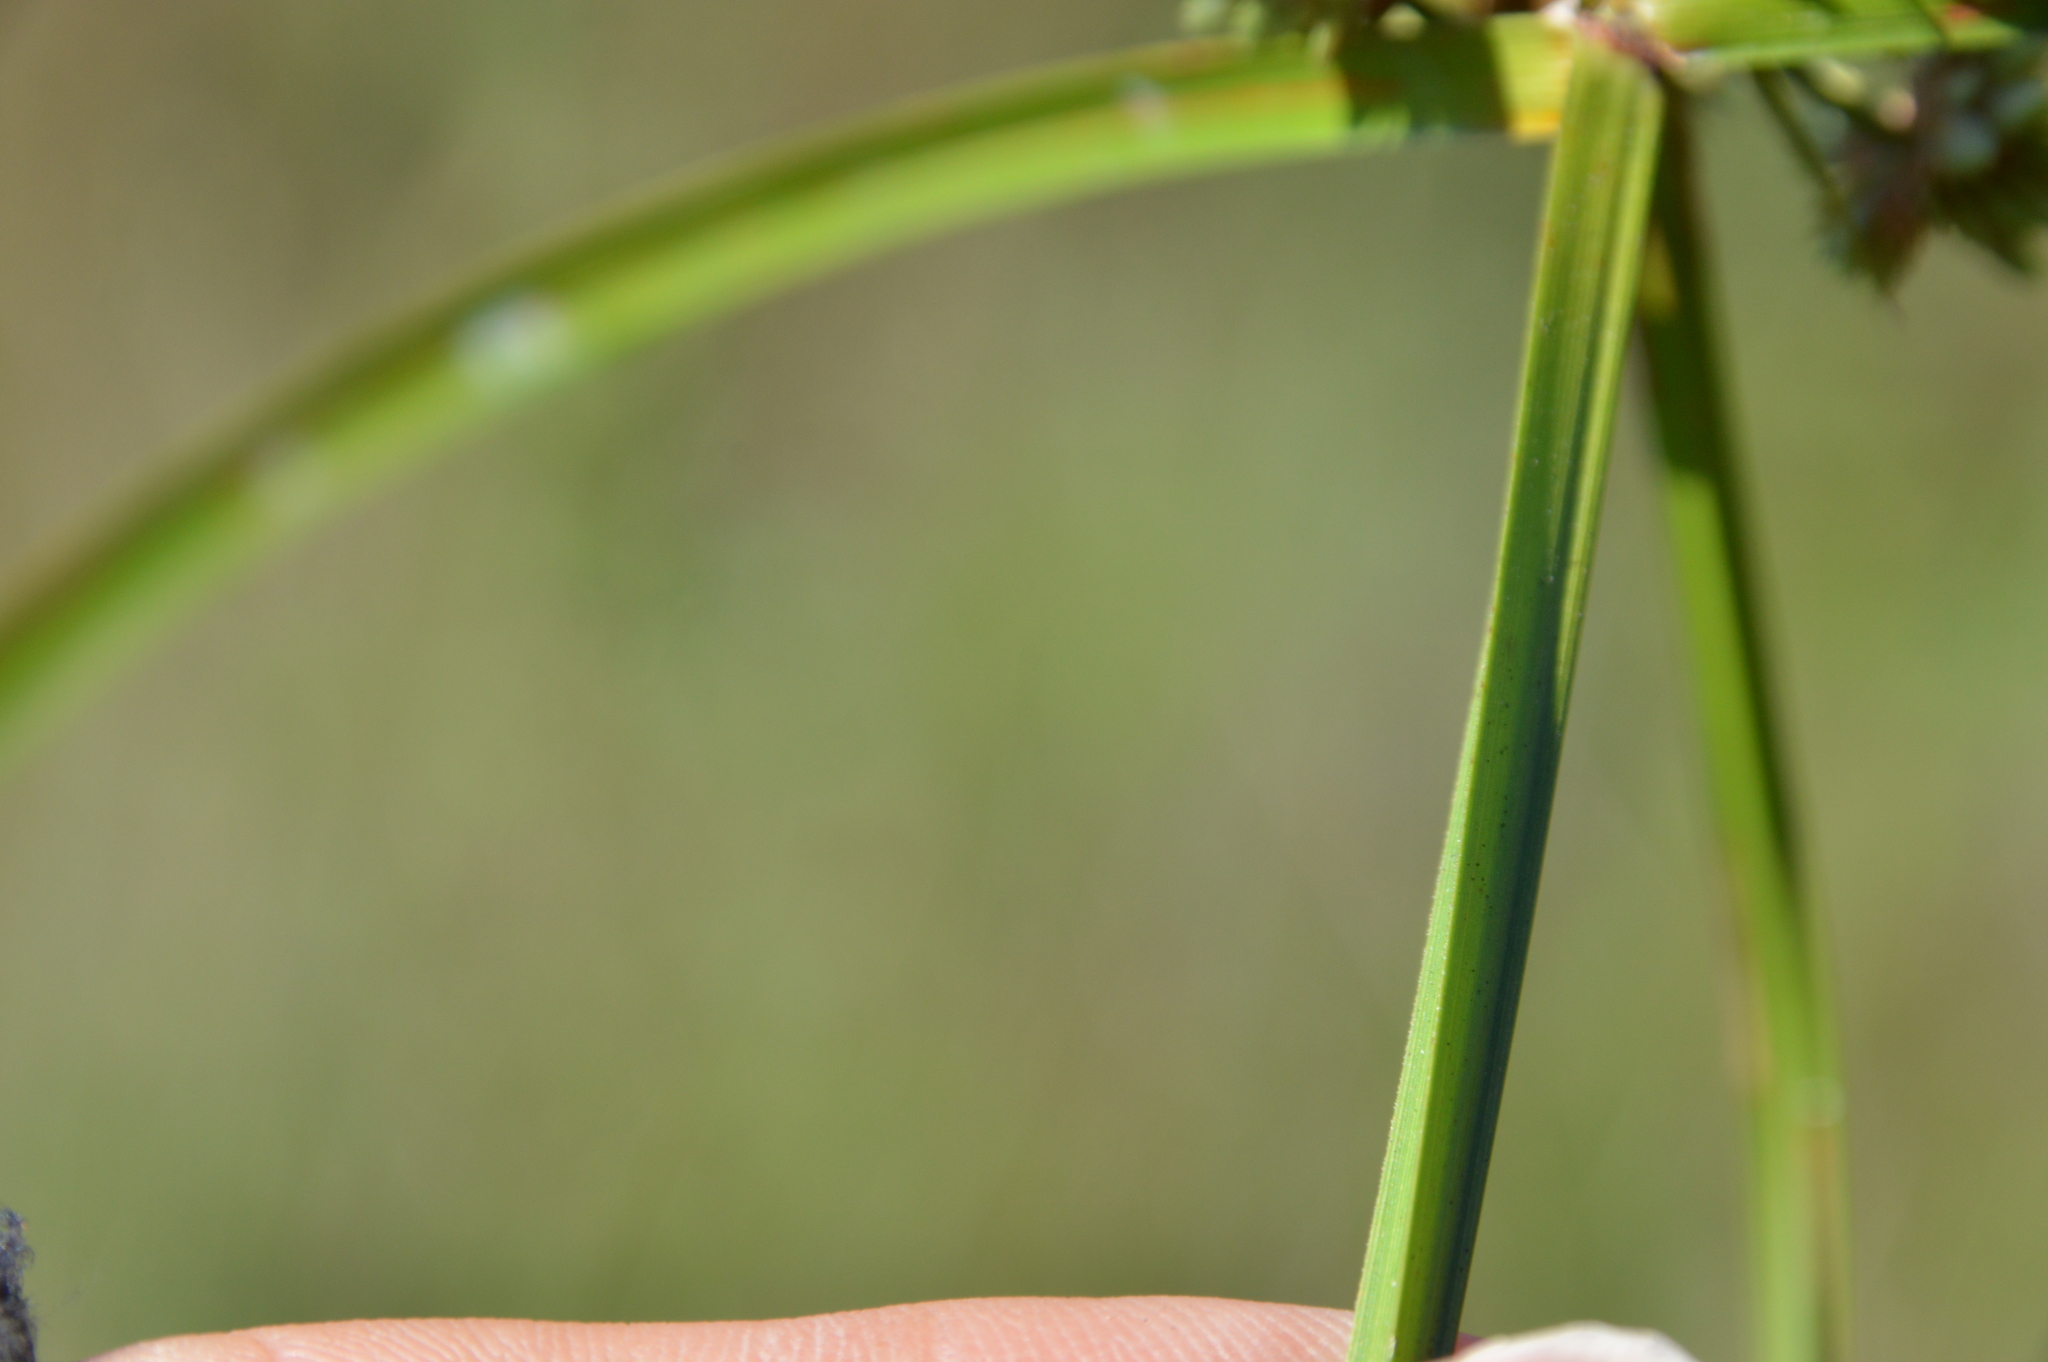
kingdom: Plantae
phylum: Tracheophyta
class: Liliopsida
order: Poales
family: Cyperaceae
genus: Cyperus
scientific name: Cyperus virens
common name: Green flatsedge
